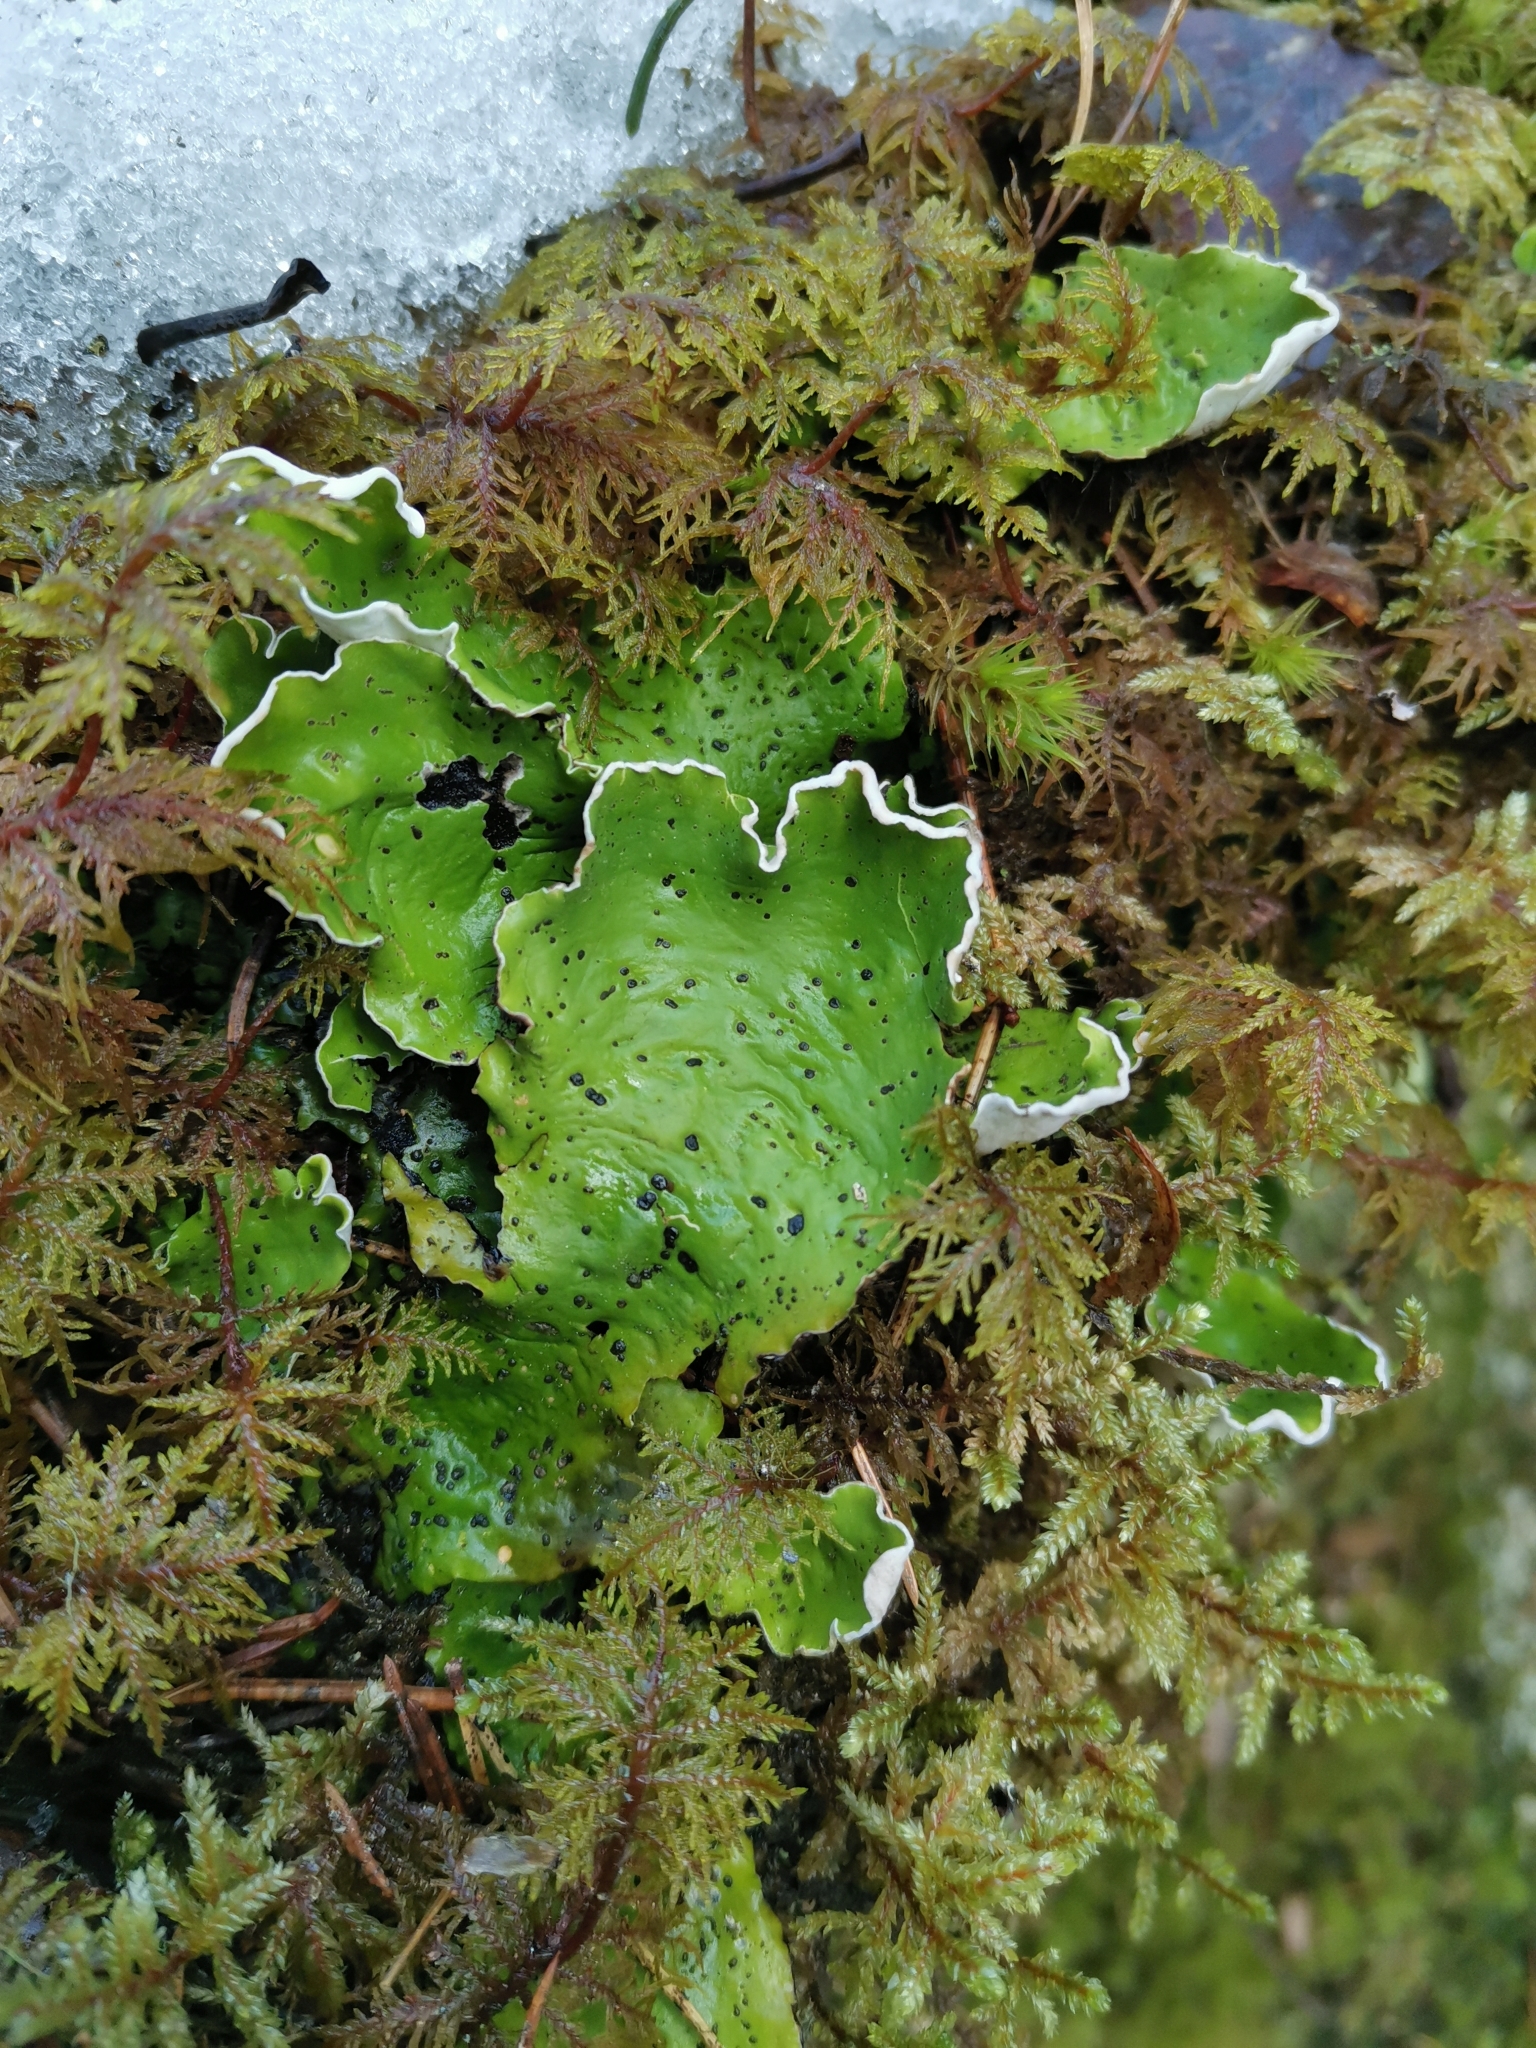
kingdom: Fungi
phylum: Ascomycota
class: Lecanoromycetes
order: Peltigerales
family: Peltigeraceae
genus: Peltigera
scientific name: Peltigera aphthosa
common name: Common freckle pelt lichen
